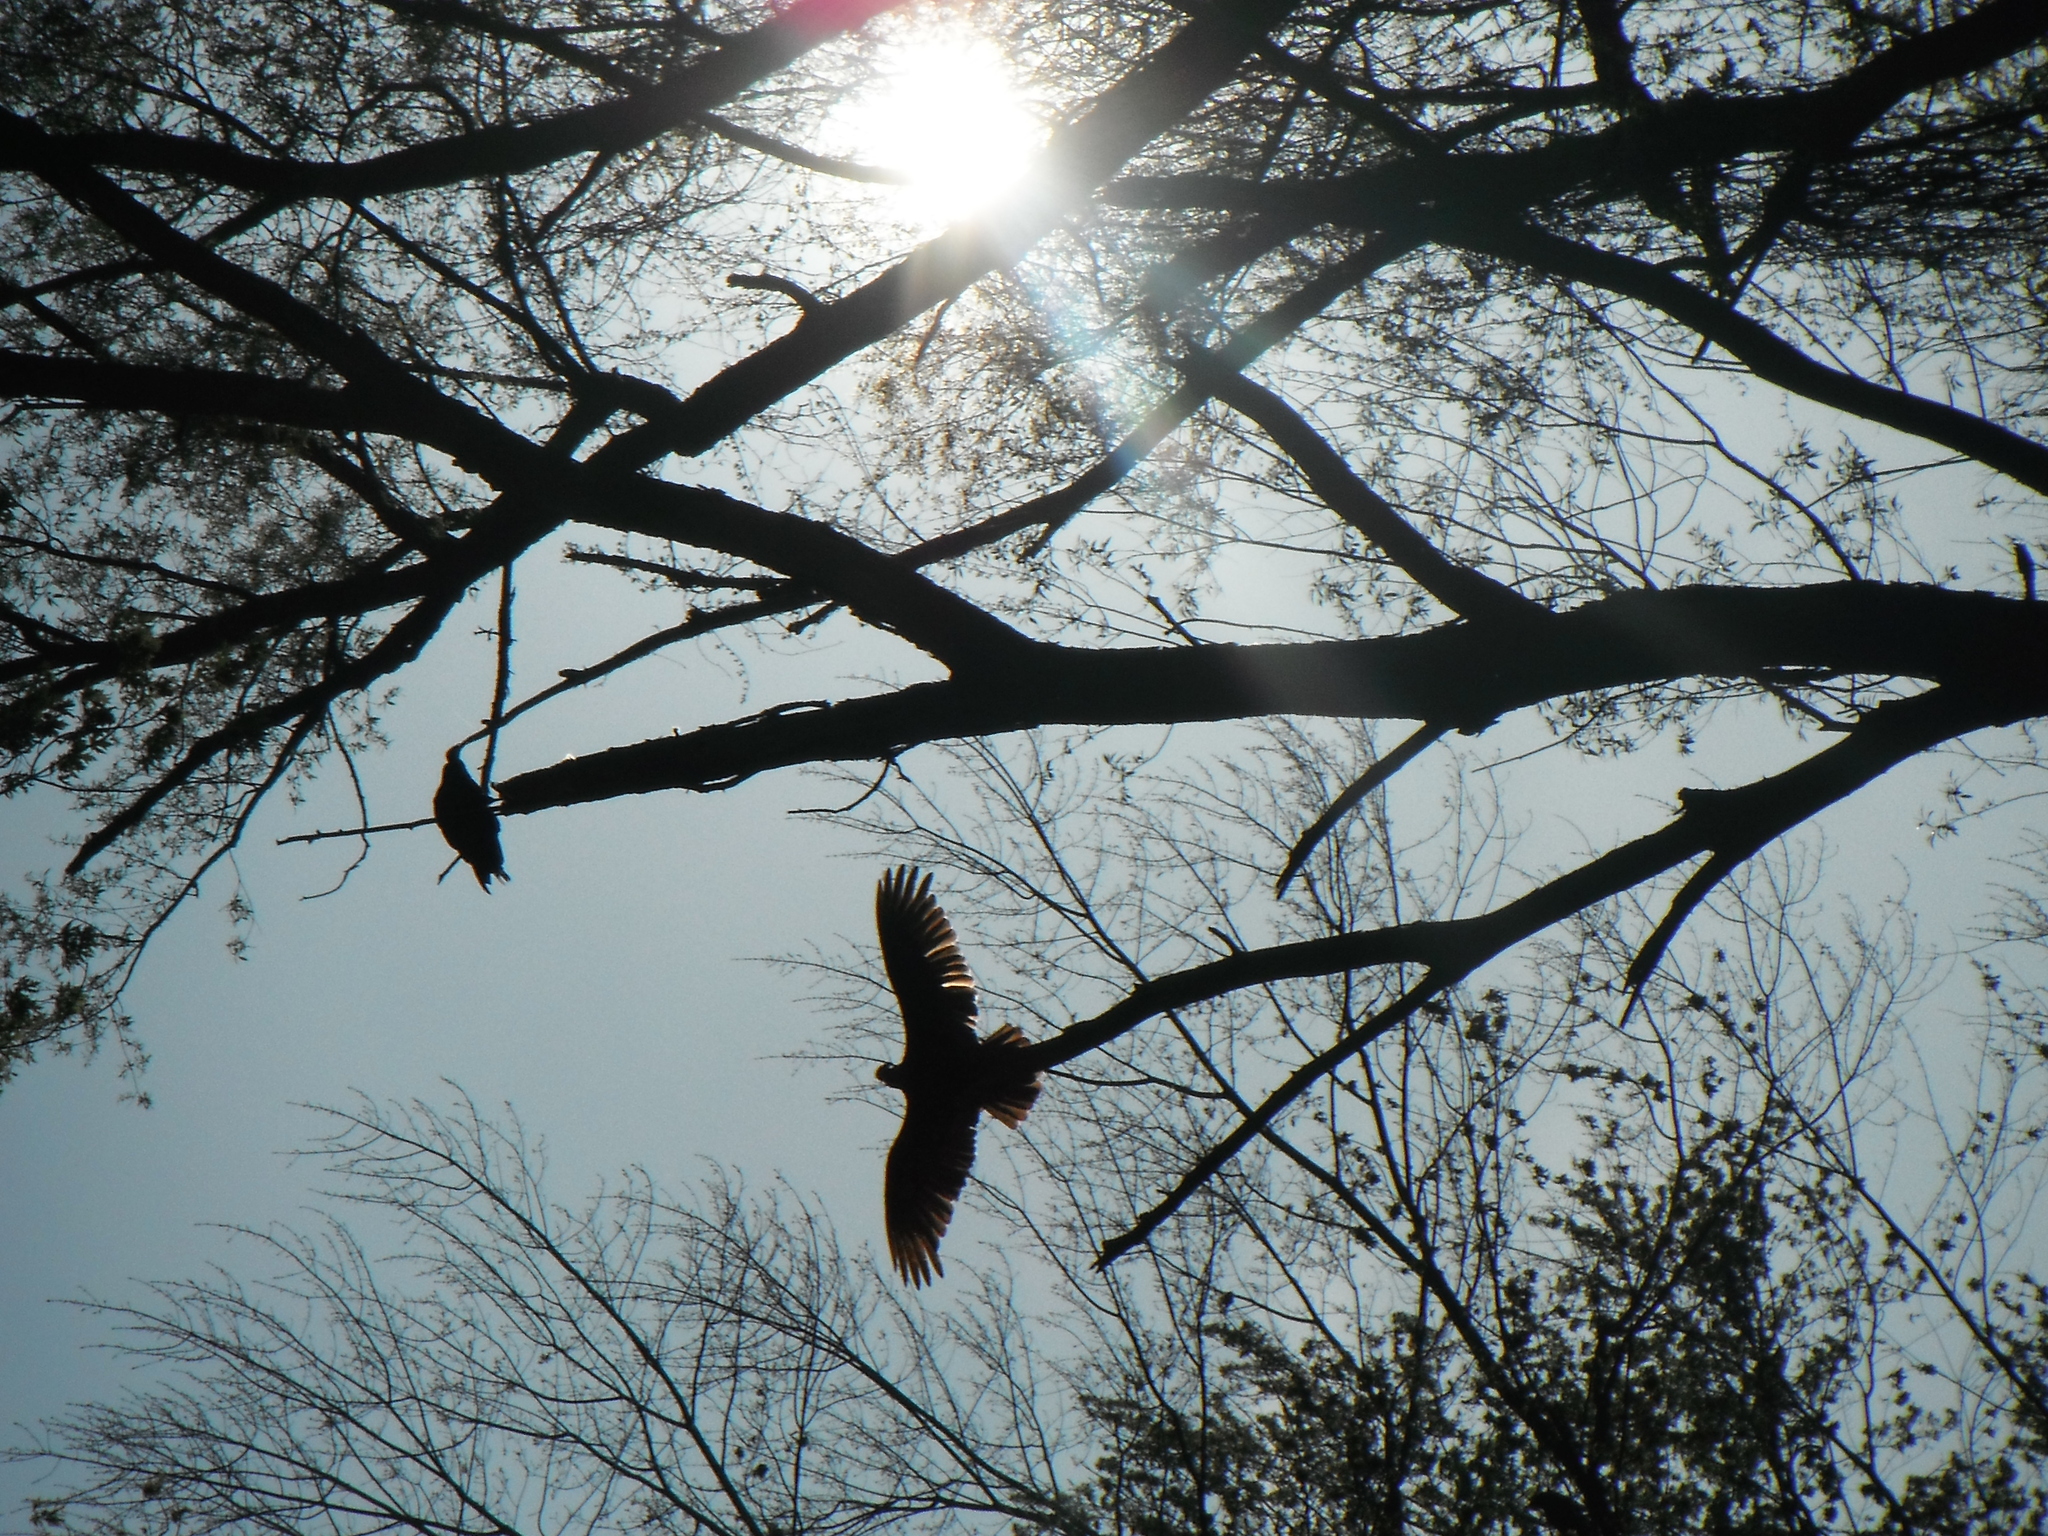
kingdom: Animalia
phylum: Chordata
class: Aves
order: Accipitriformes
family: Cathartidae
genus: Cathartes
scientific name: Cathartes aura
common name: Turkey vulture
